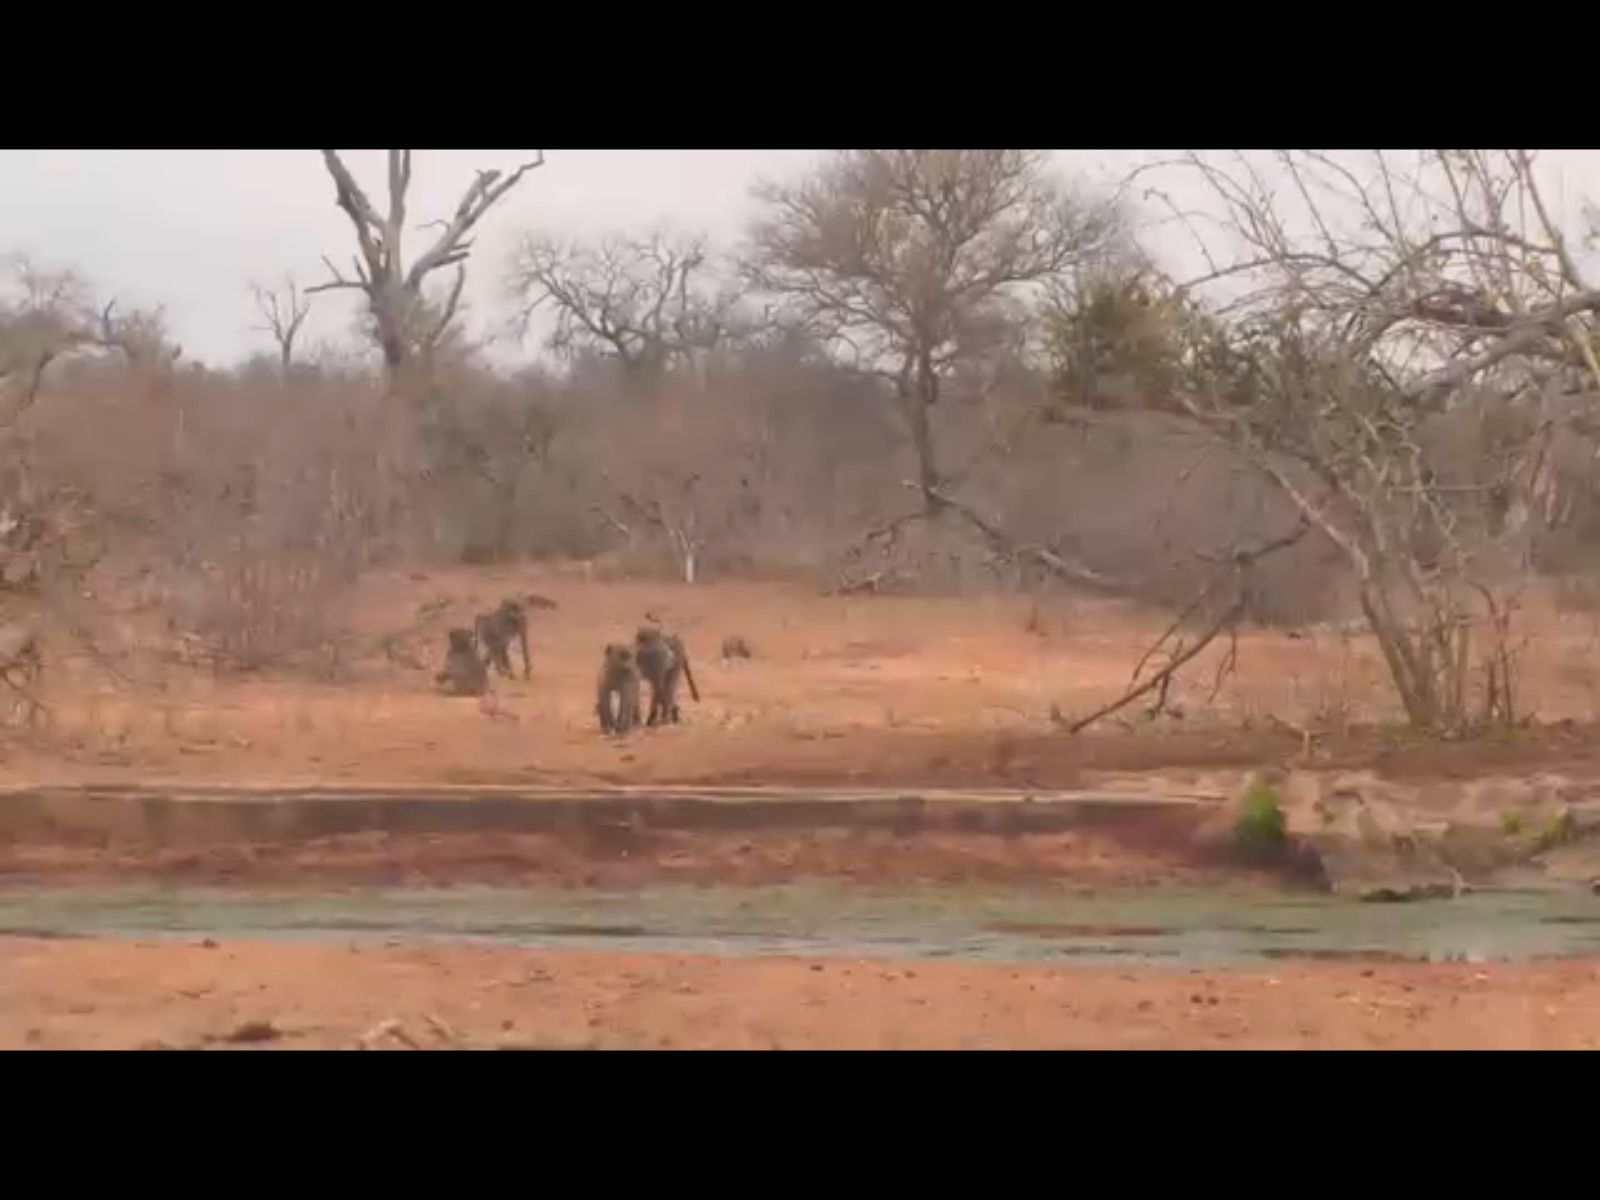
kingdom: Animalia
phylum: Chordata
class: Mammalia
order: Primates
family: Cercopithecidae
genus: Papio
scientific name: Papio ursinus
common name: Chacma baboon
